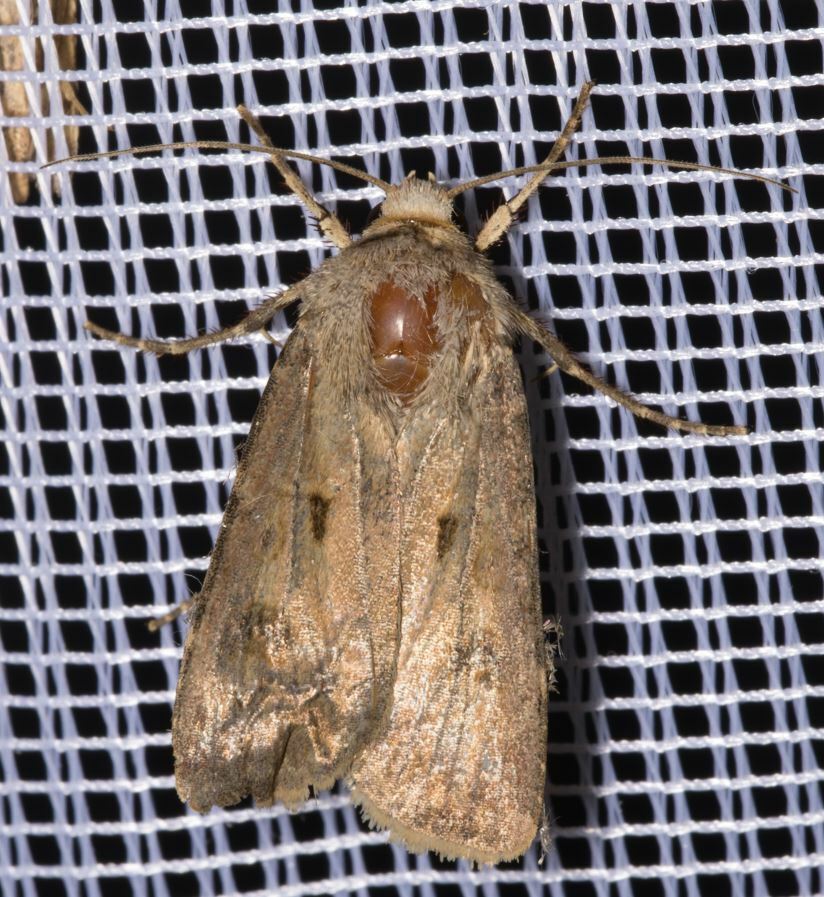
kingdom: Animalia
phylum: Arthropoda
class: Insecta
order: Lepidoptera
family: Noctuidae
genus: Agrotis
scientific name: Agrotis exclamationis
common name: Heart and dart
